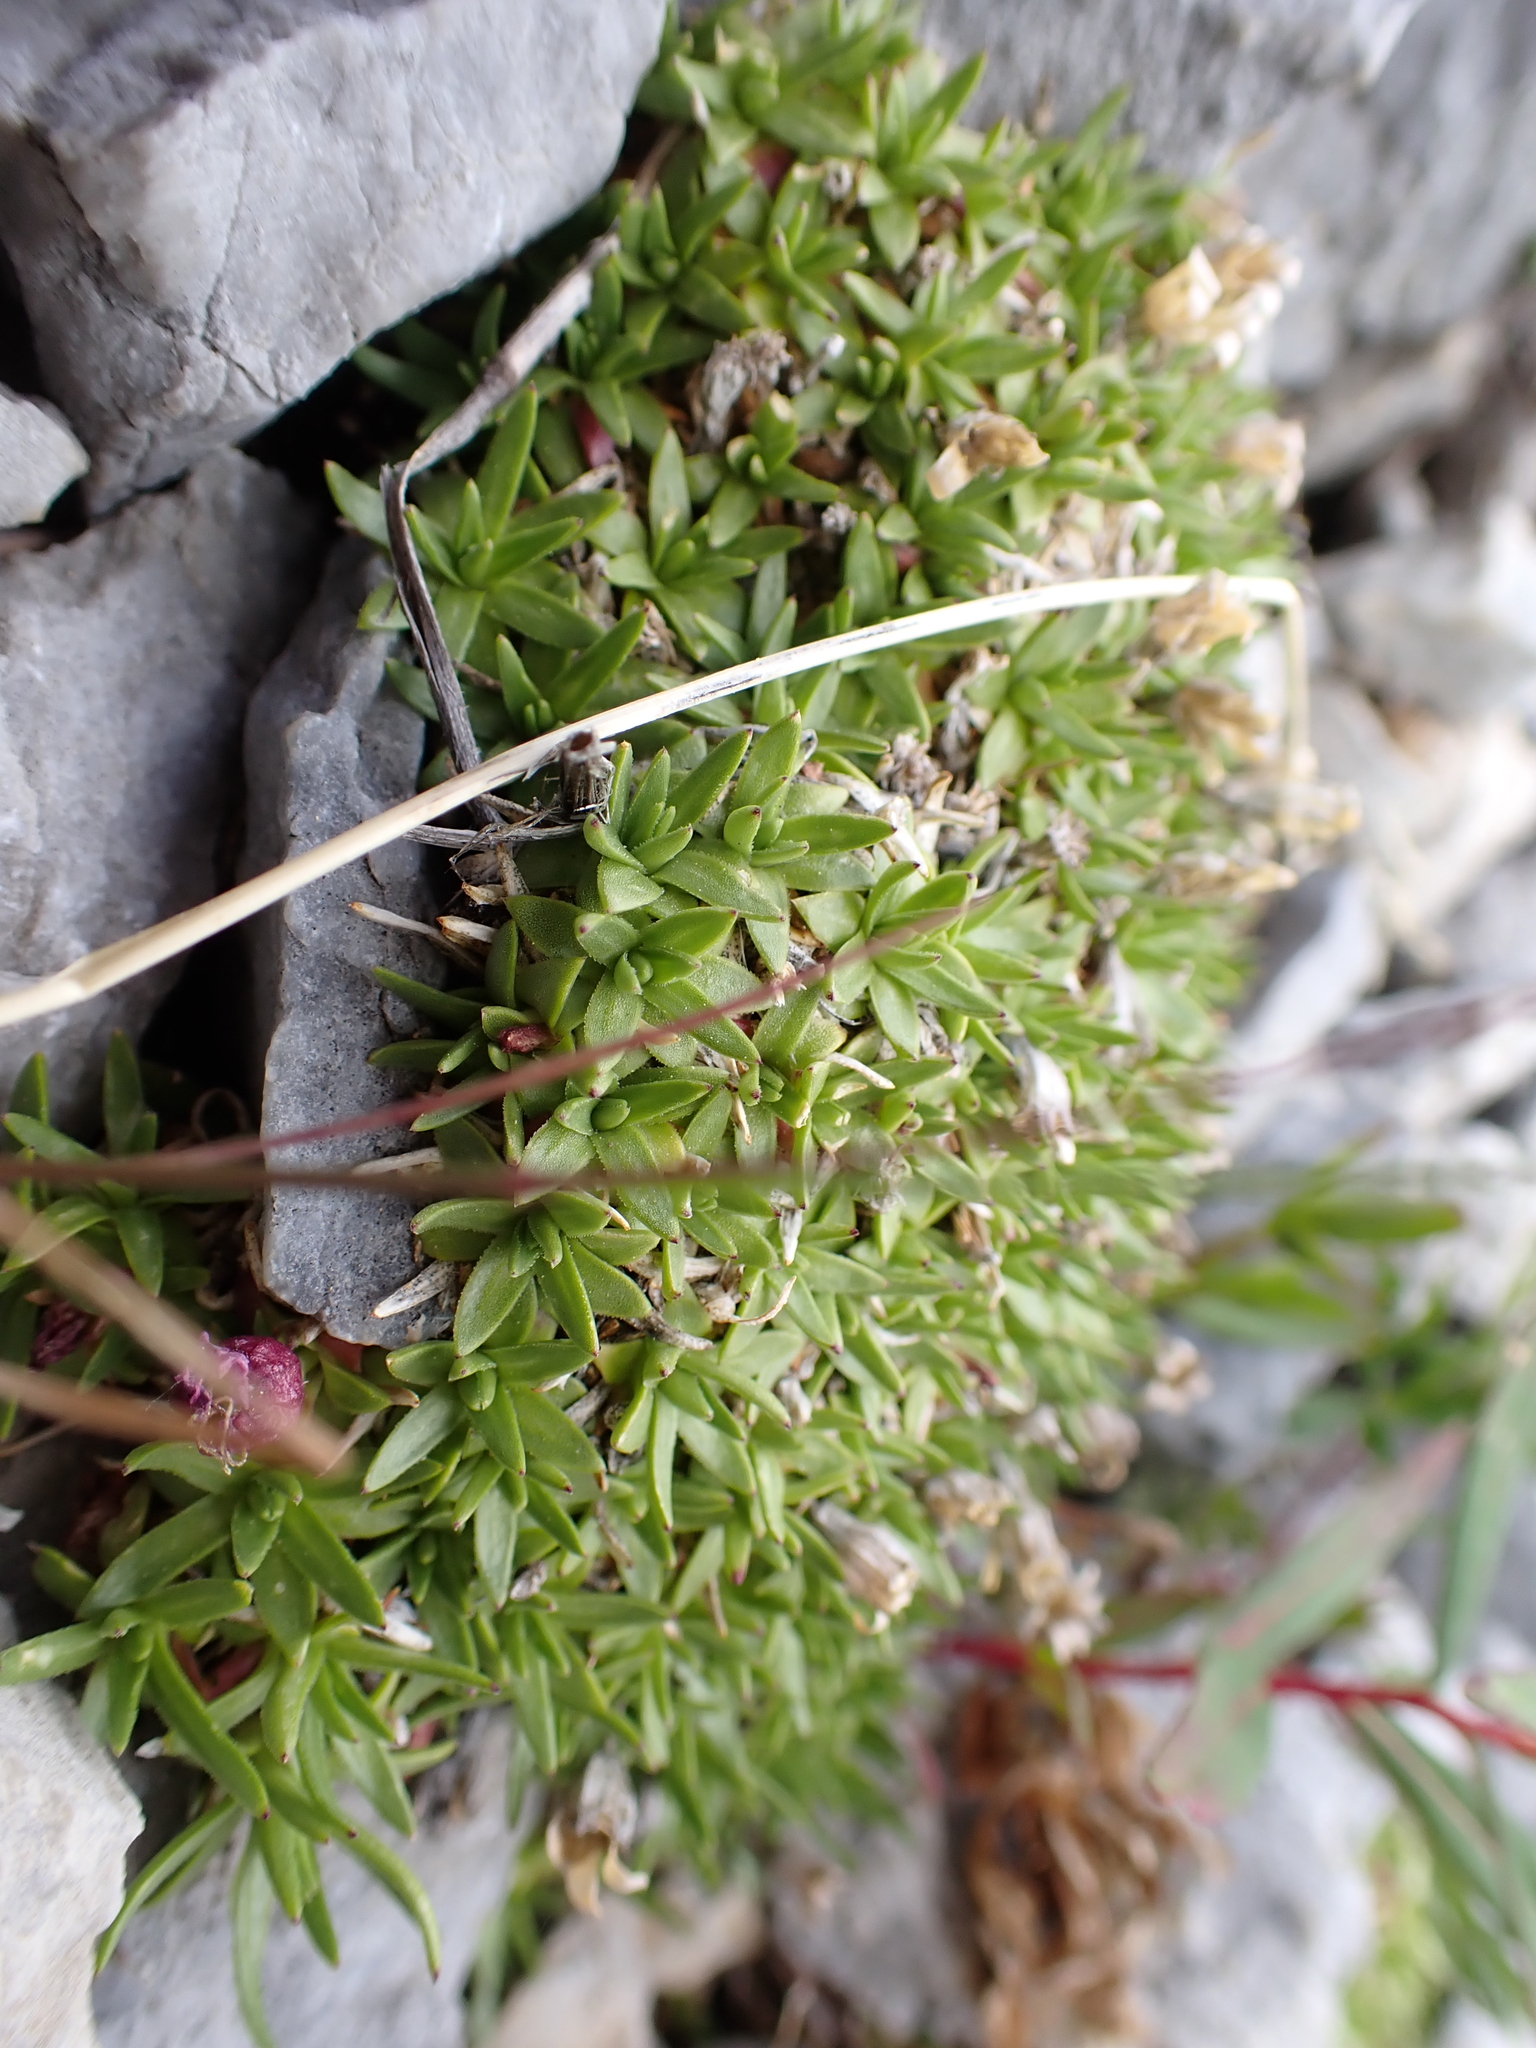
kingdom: Plantae
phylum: Tracheophyta
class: Magnoliopsida
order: Caryophyllales
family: Caryophyllaceae
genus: Silene
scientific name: Silene acaulis
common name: Moss campion
